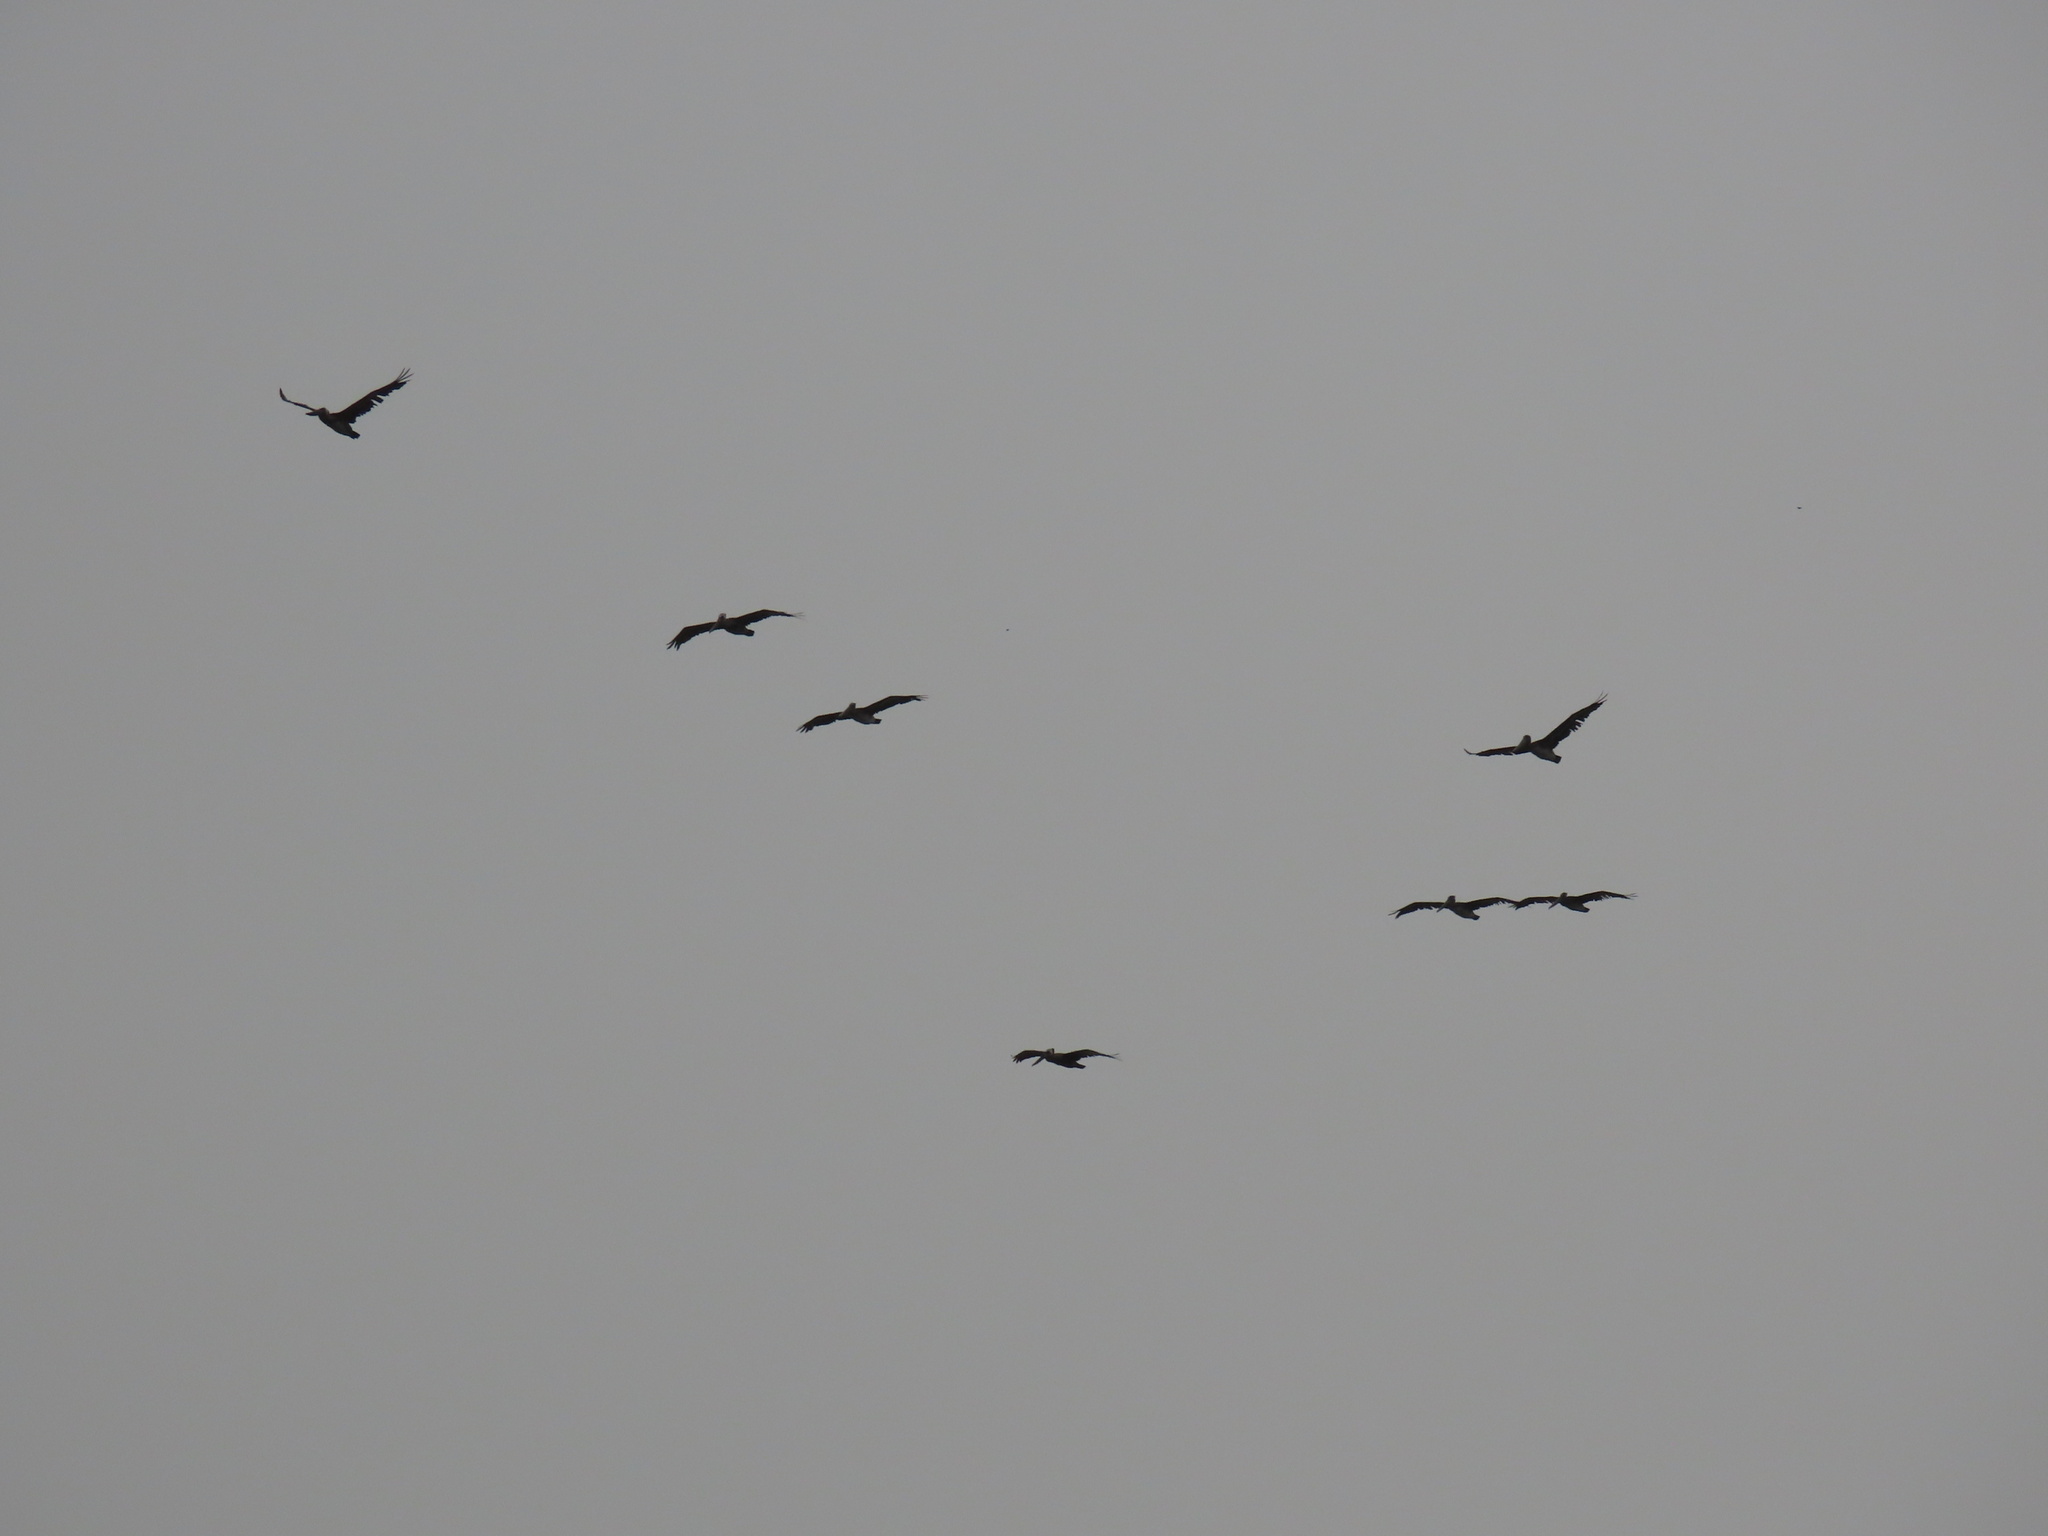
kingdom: Animalia
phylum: Chordata
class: Aves
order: Pelecaniformes
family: Pelecanidae
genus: Pelecanus
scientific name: Pelecanus occidentalis
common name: Brown pelican
